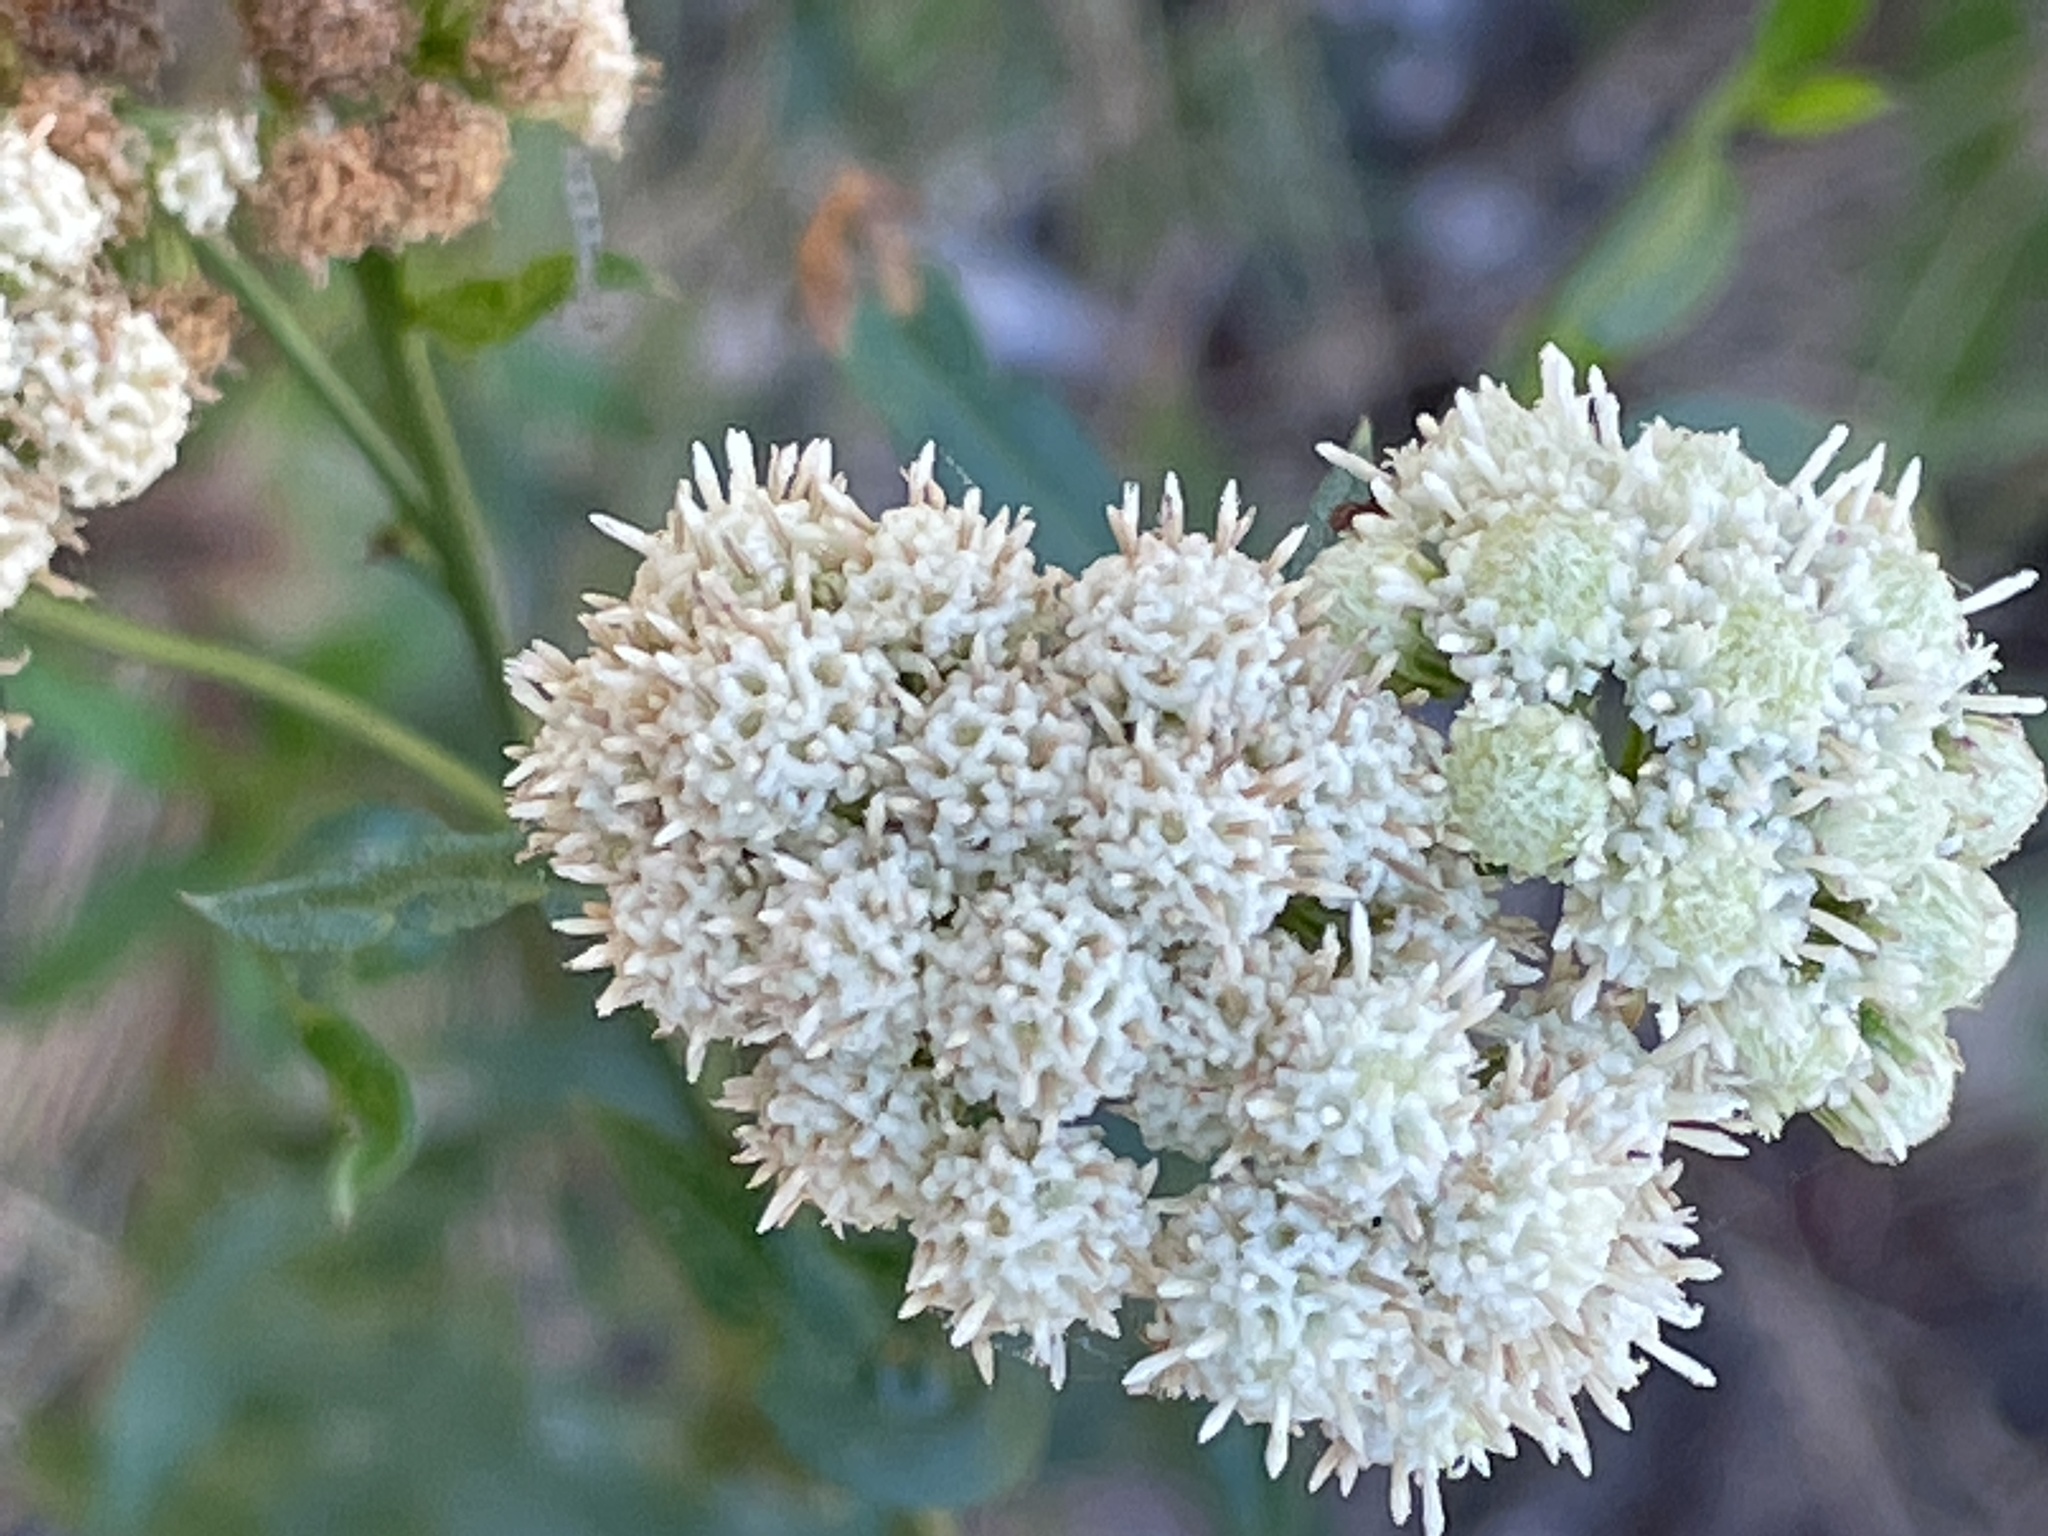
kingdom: Plantae
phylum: Tracheophyta
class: Magnoliopsida
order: Asterales
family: Asteraceae
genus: Baccharis
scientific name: Baccharis glutinosa
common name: Saltmarsh baccharis
